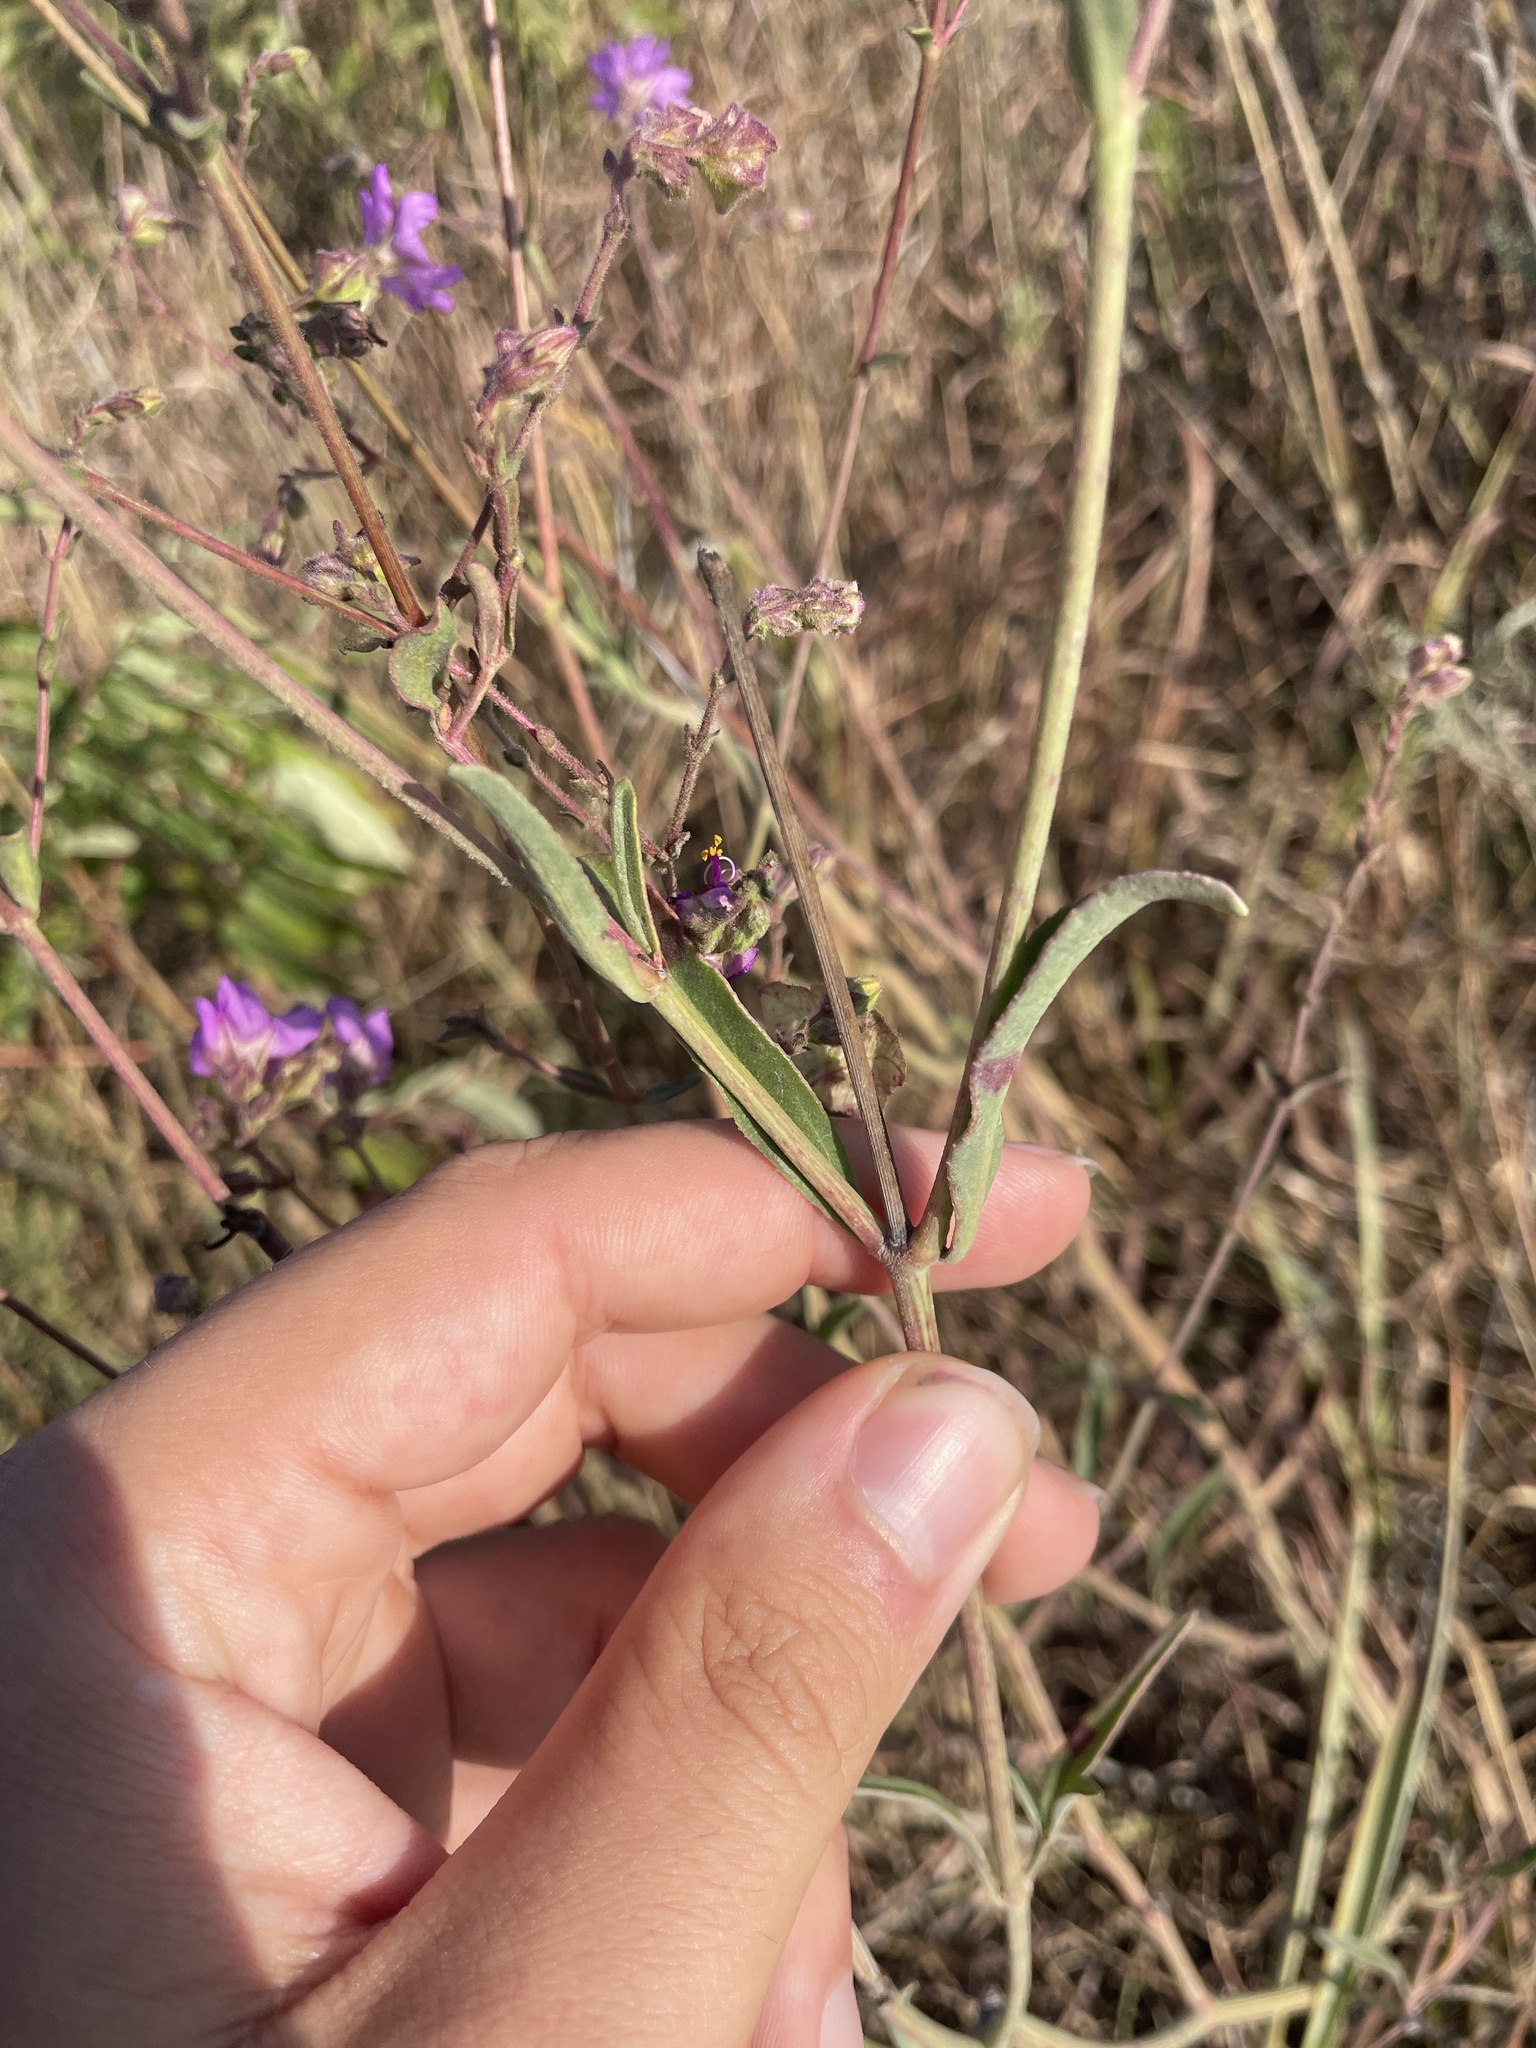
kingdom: Plantae
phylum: Tracheophyta
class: Magnoliopsida
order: Caryophyllales
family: Nyctaginaceae
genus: Mirabilis
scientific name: Mirabilis albida
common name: Hairy four-o'clock
